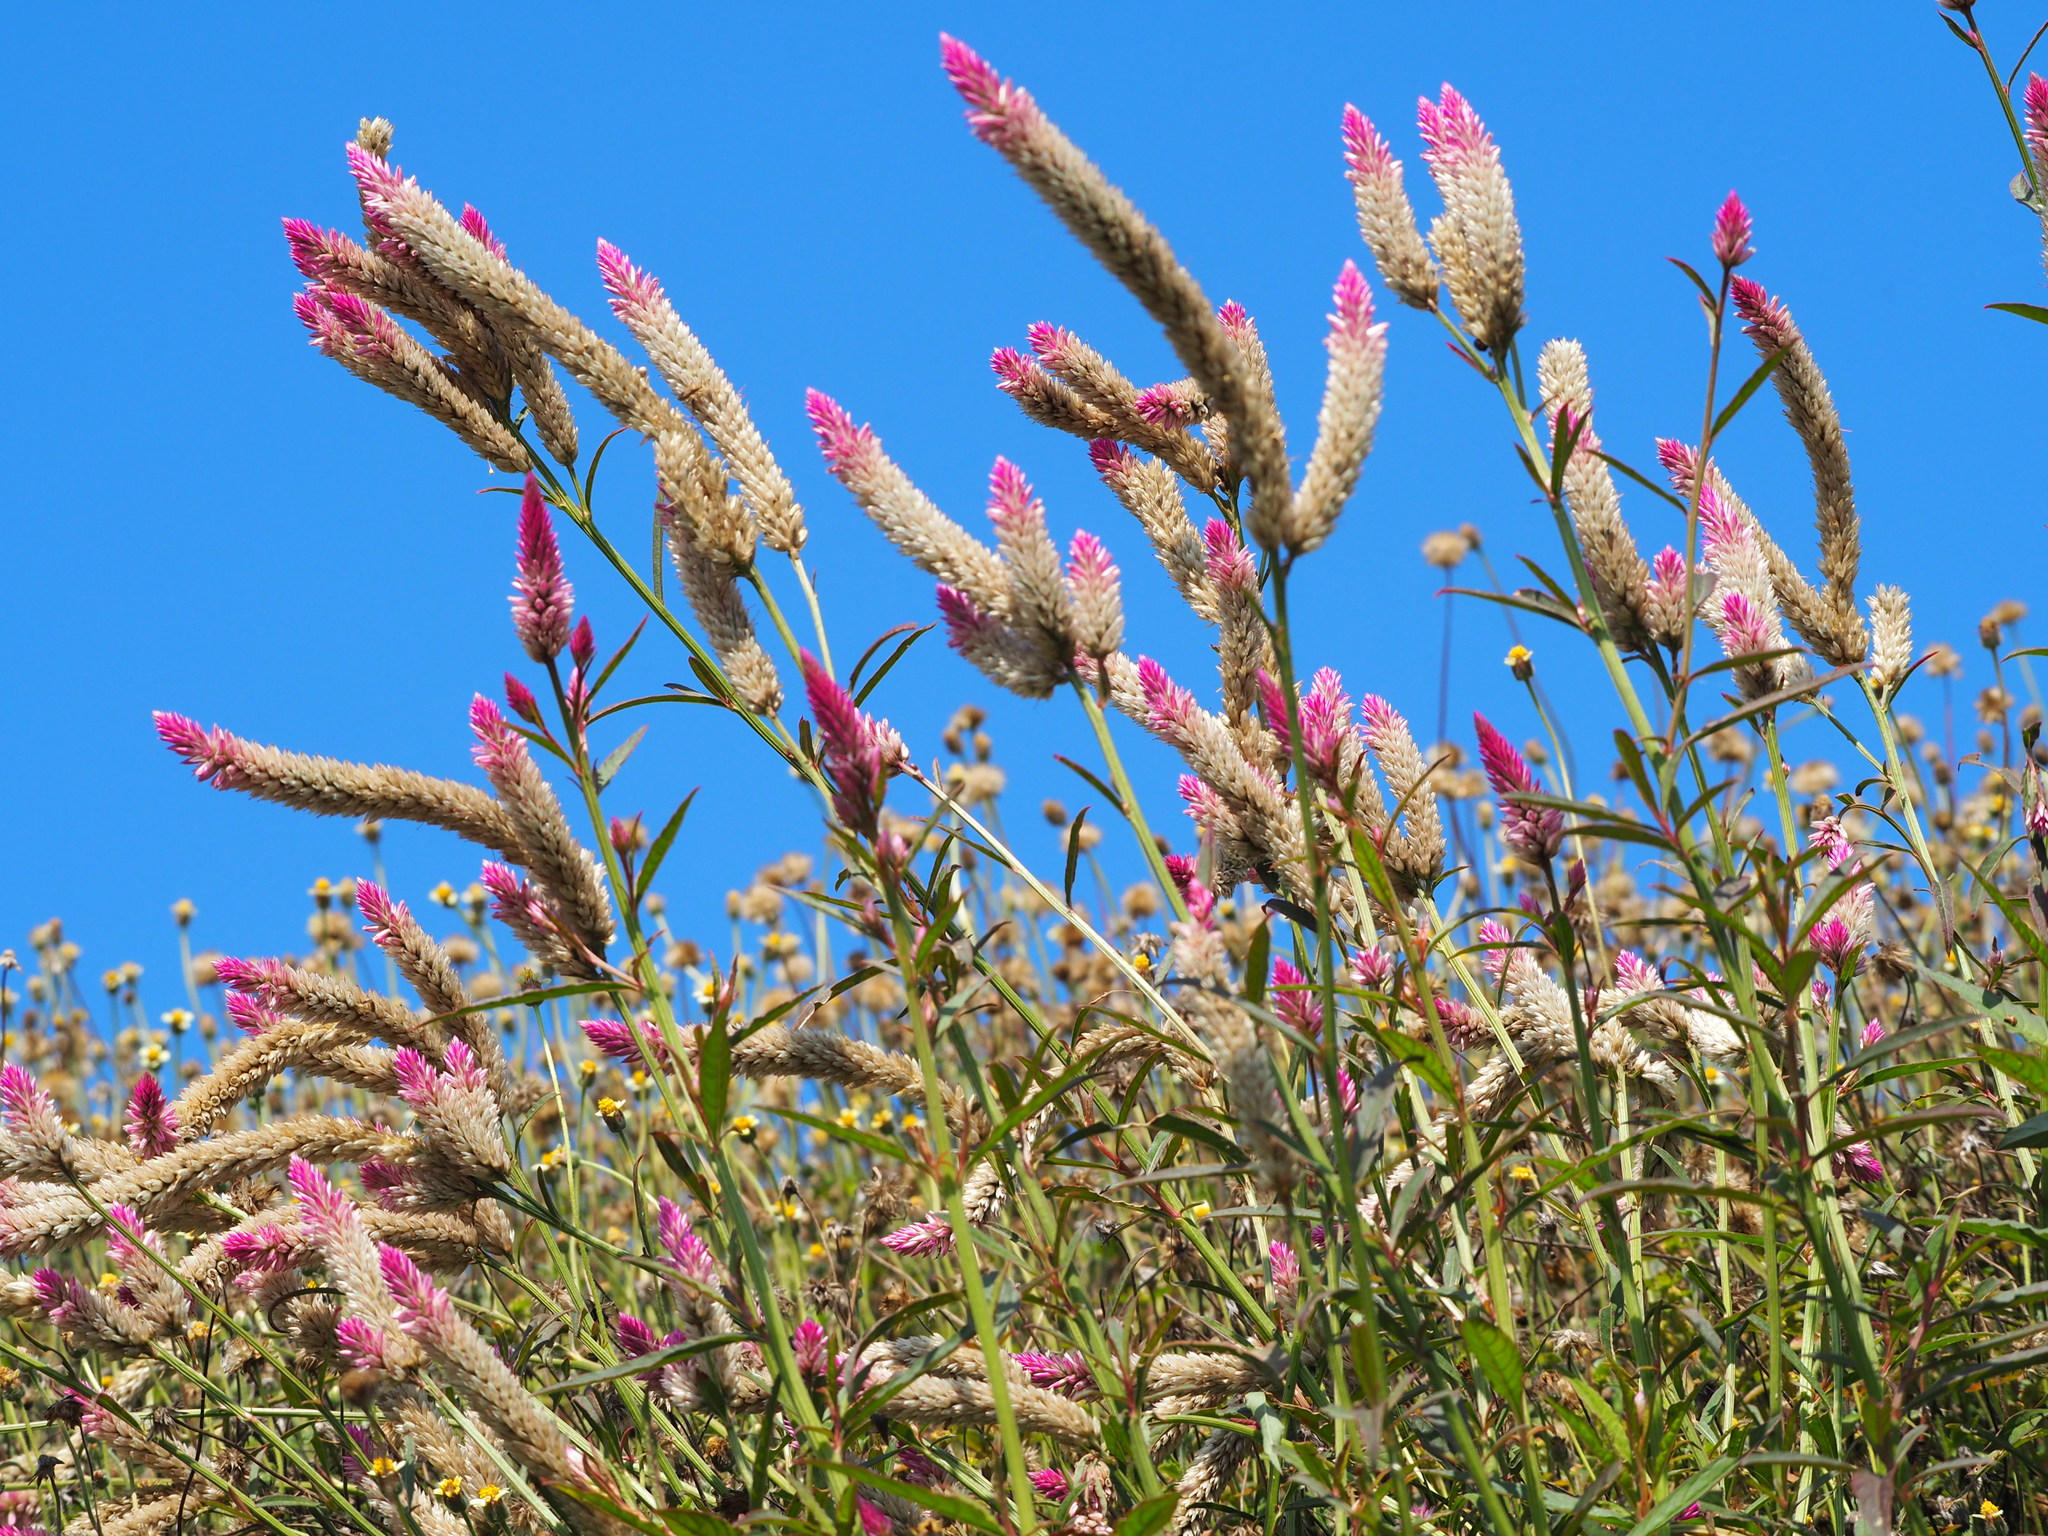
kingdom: Plantae
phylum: Tracheophyta
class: Magnoliopsida
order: Caryophyllales
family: Amaranthaceae
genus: Celosia
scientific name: Celosia argentea
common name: Feather cockscomb
